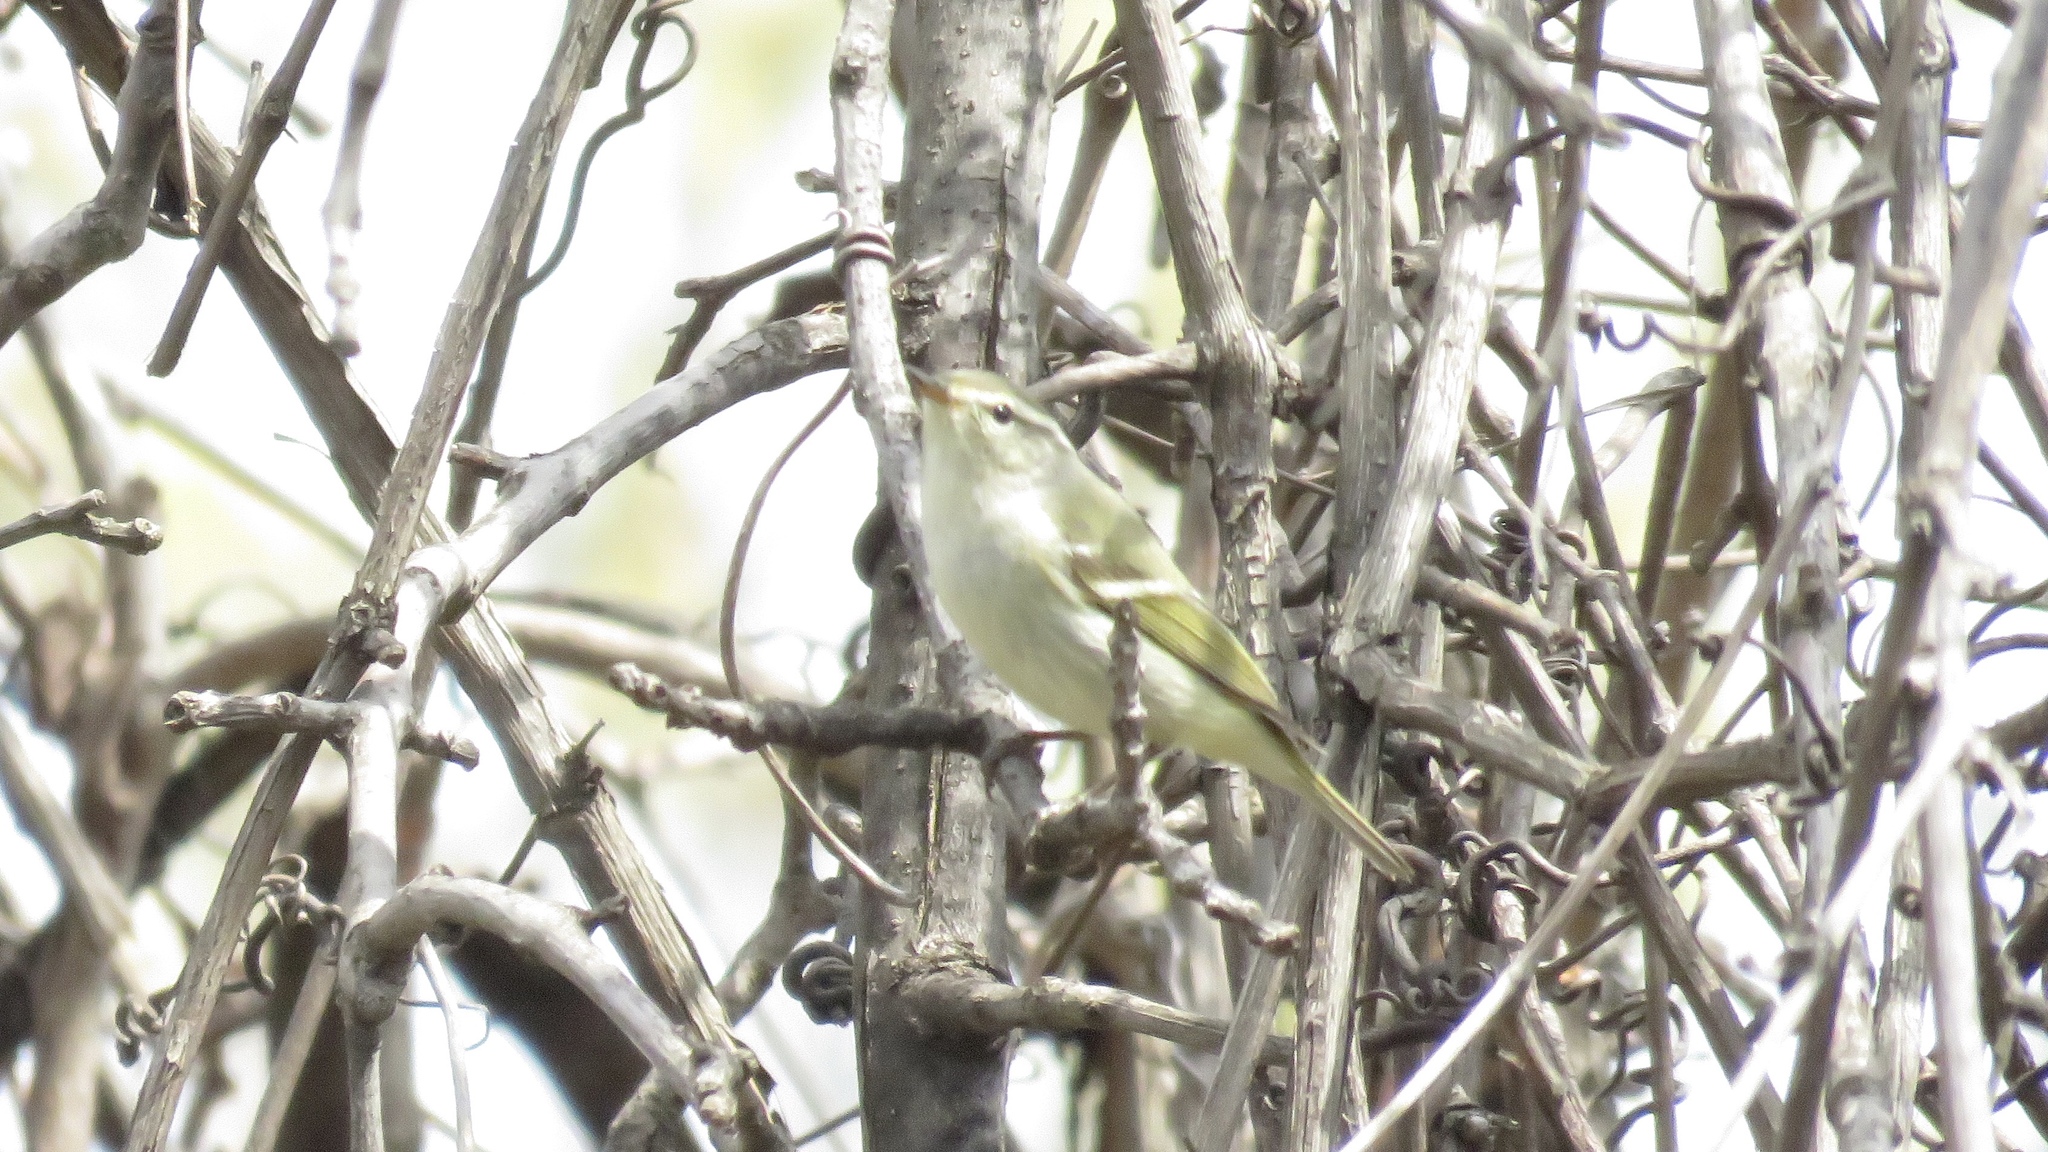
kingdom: Animalia
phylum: Chordata
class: Aves
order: Passeriformes
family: Phylloscopidae
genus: Phylloscopus
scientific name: Phylloscopus inornatus
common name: Yellow-browed warbler
